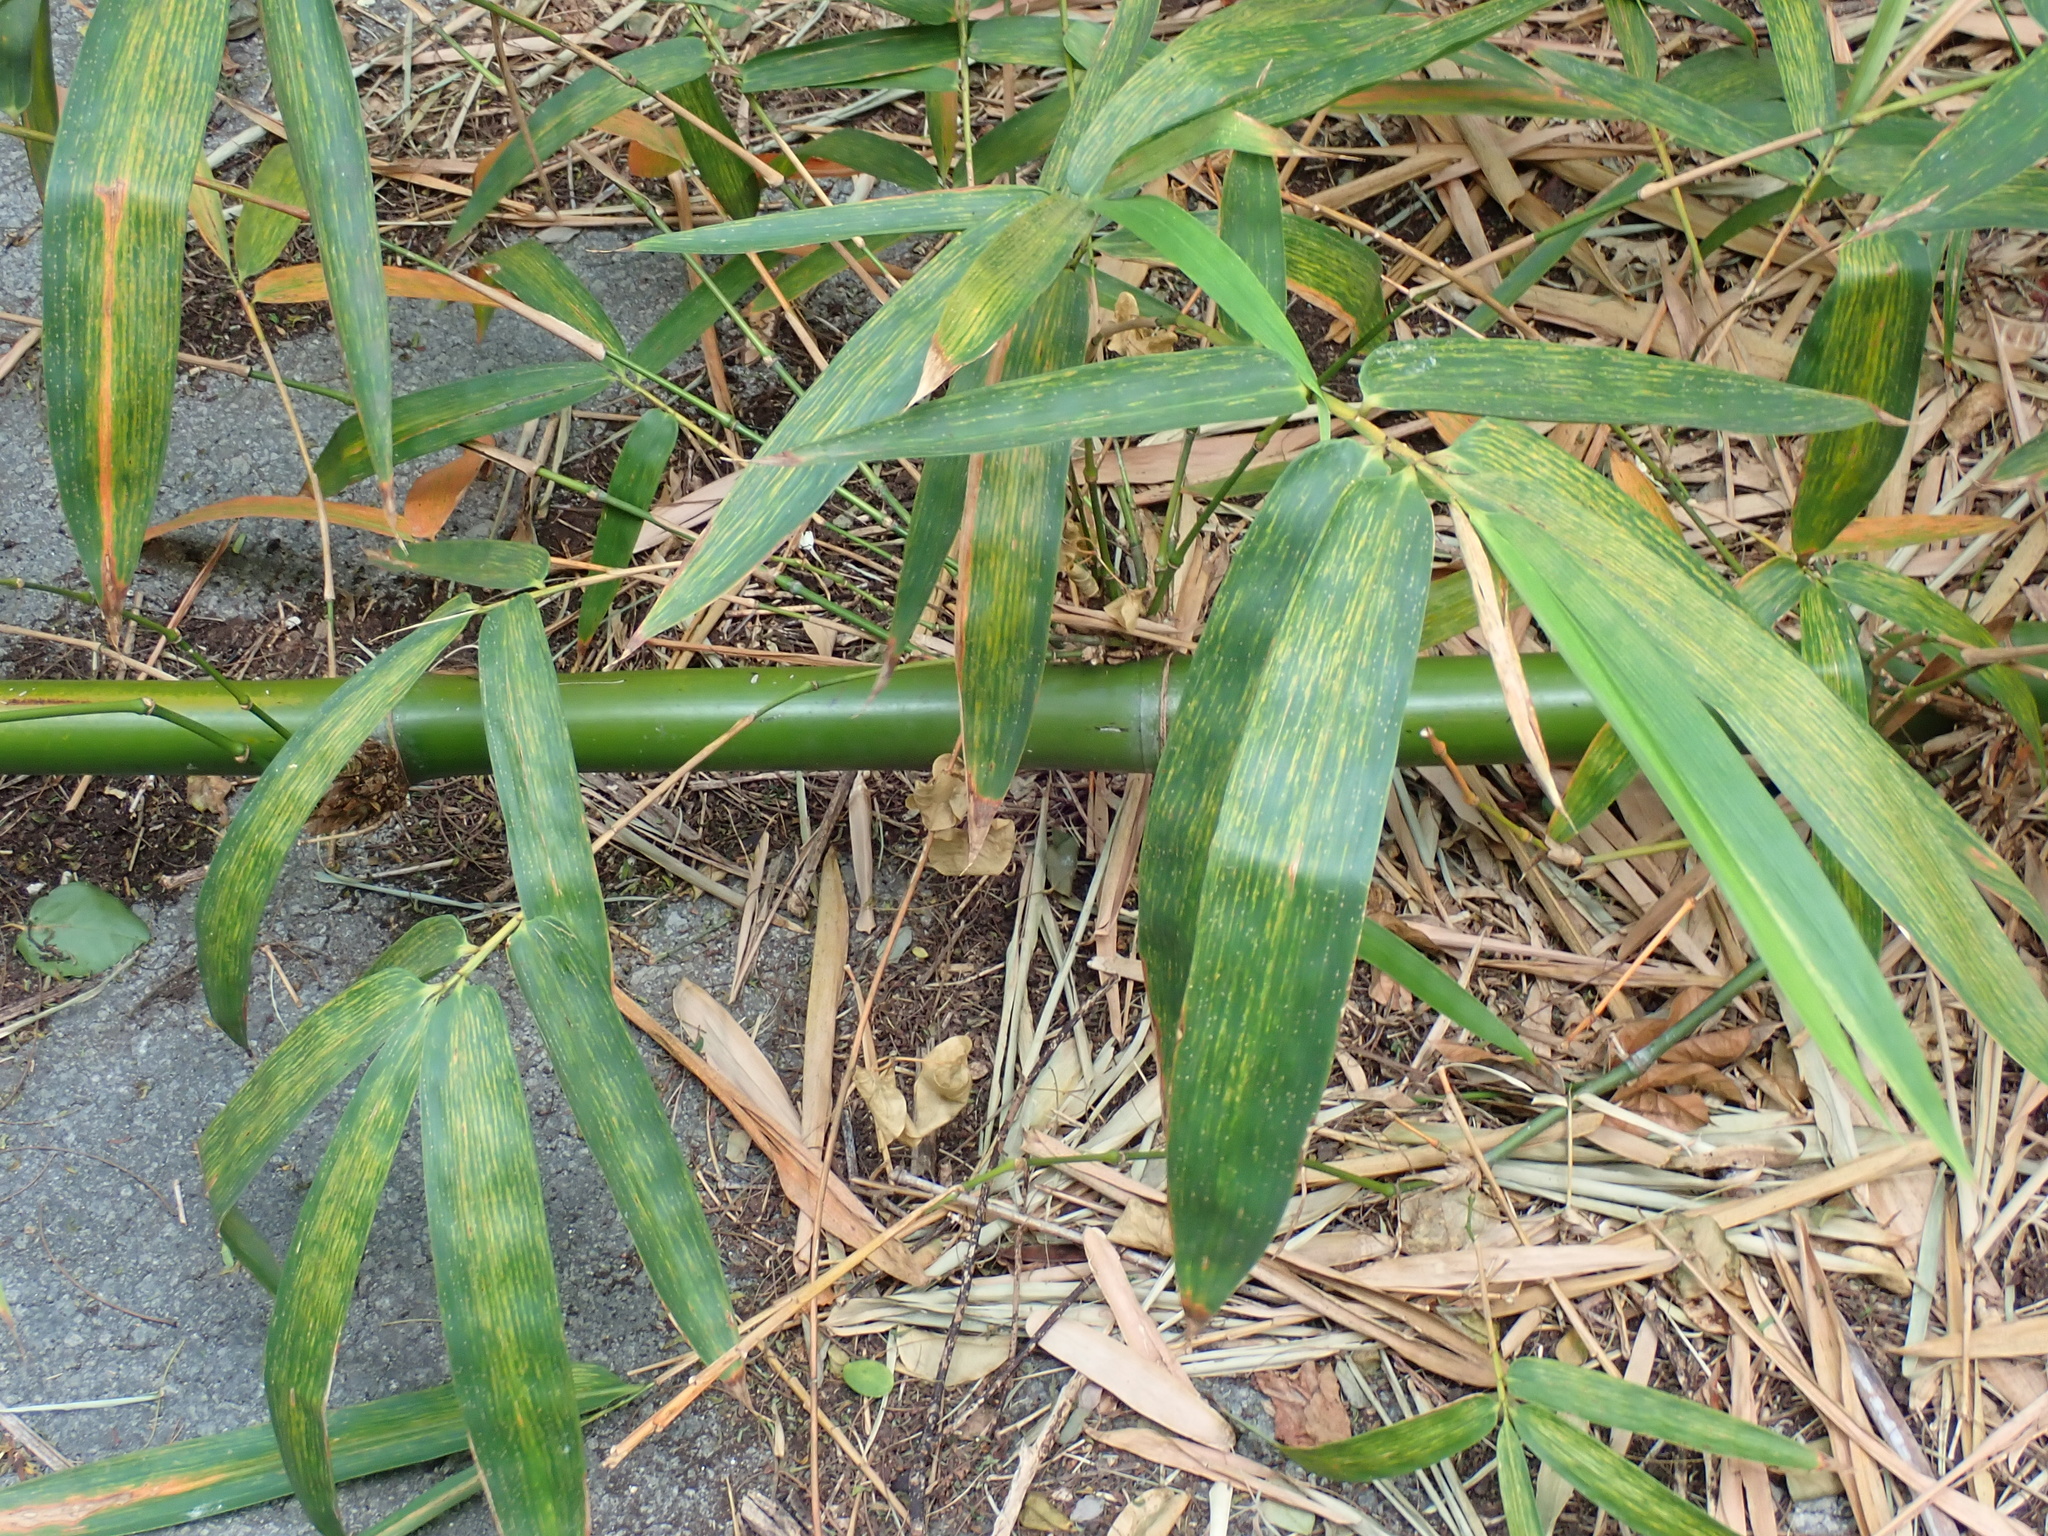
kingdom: Plantae
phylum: Tracheophyta
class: Liliopsida
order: Poales
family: Poaceae
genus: Bambusa
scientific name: Bambusa vulgaris
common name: Common bamboo
